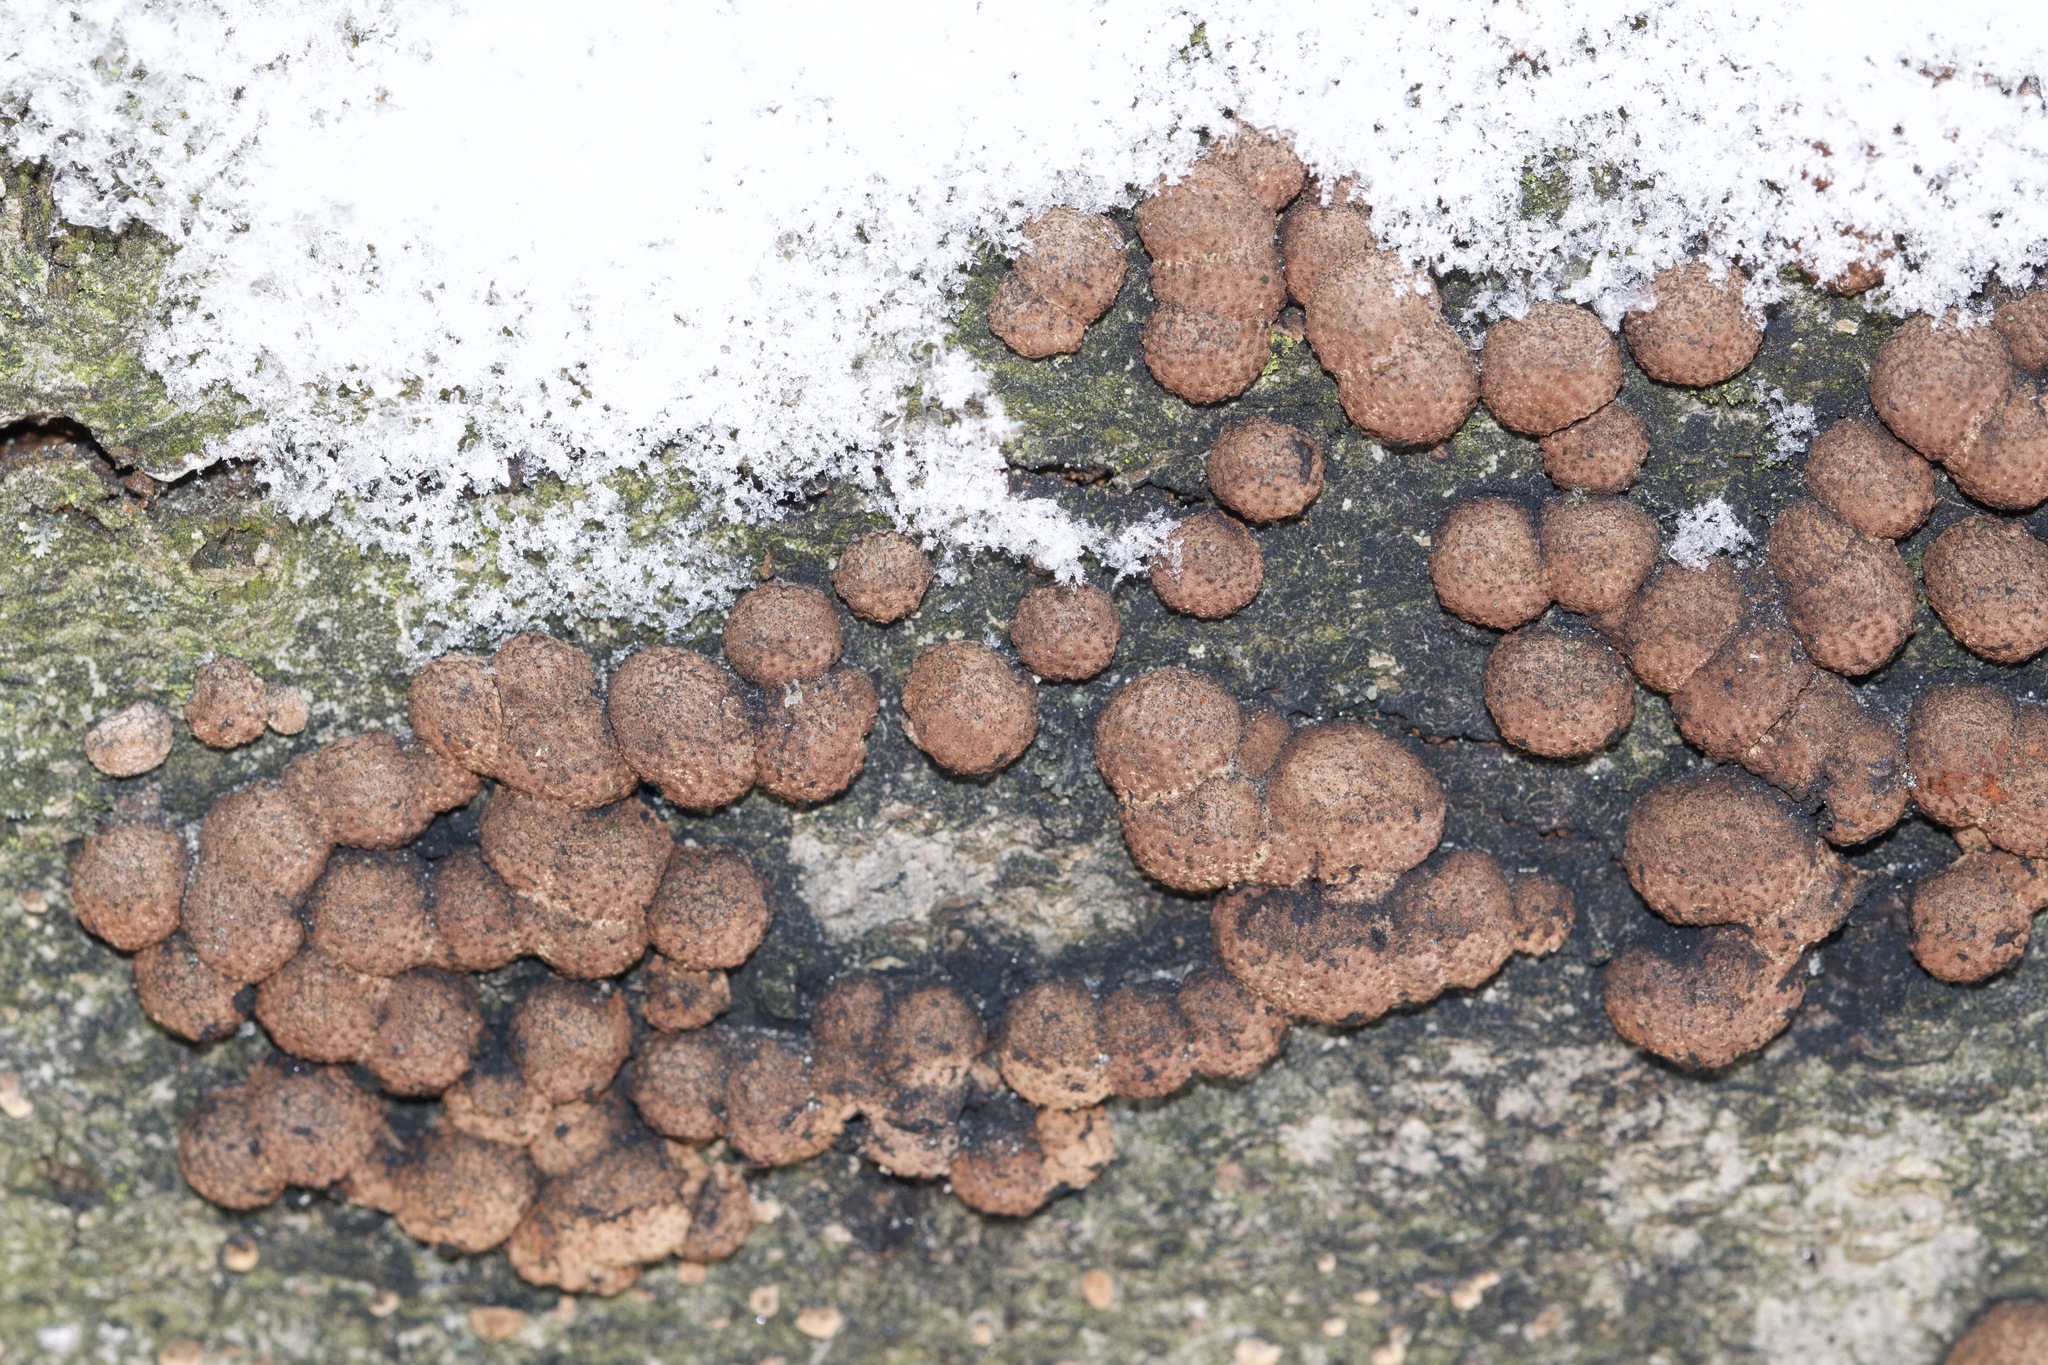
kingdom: Fungi
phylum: Ascomycota
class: Sordariomycetes
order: Xylariales
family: Hypoxylaceae
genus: Hypoxylon
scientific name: Hypoxylon fragiforme
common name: Beech woodwart
